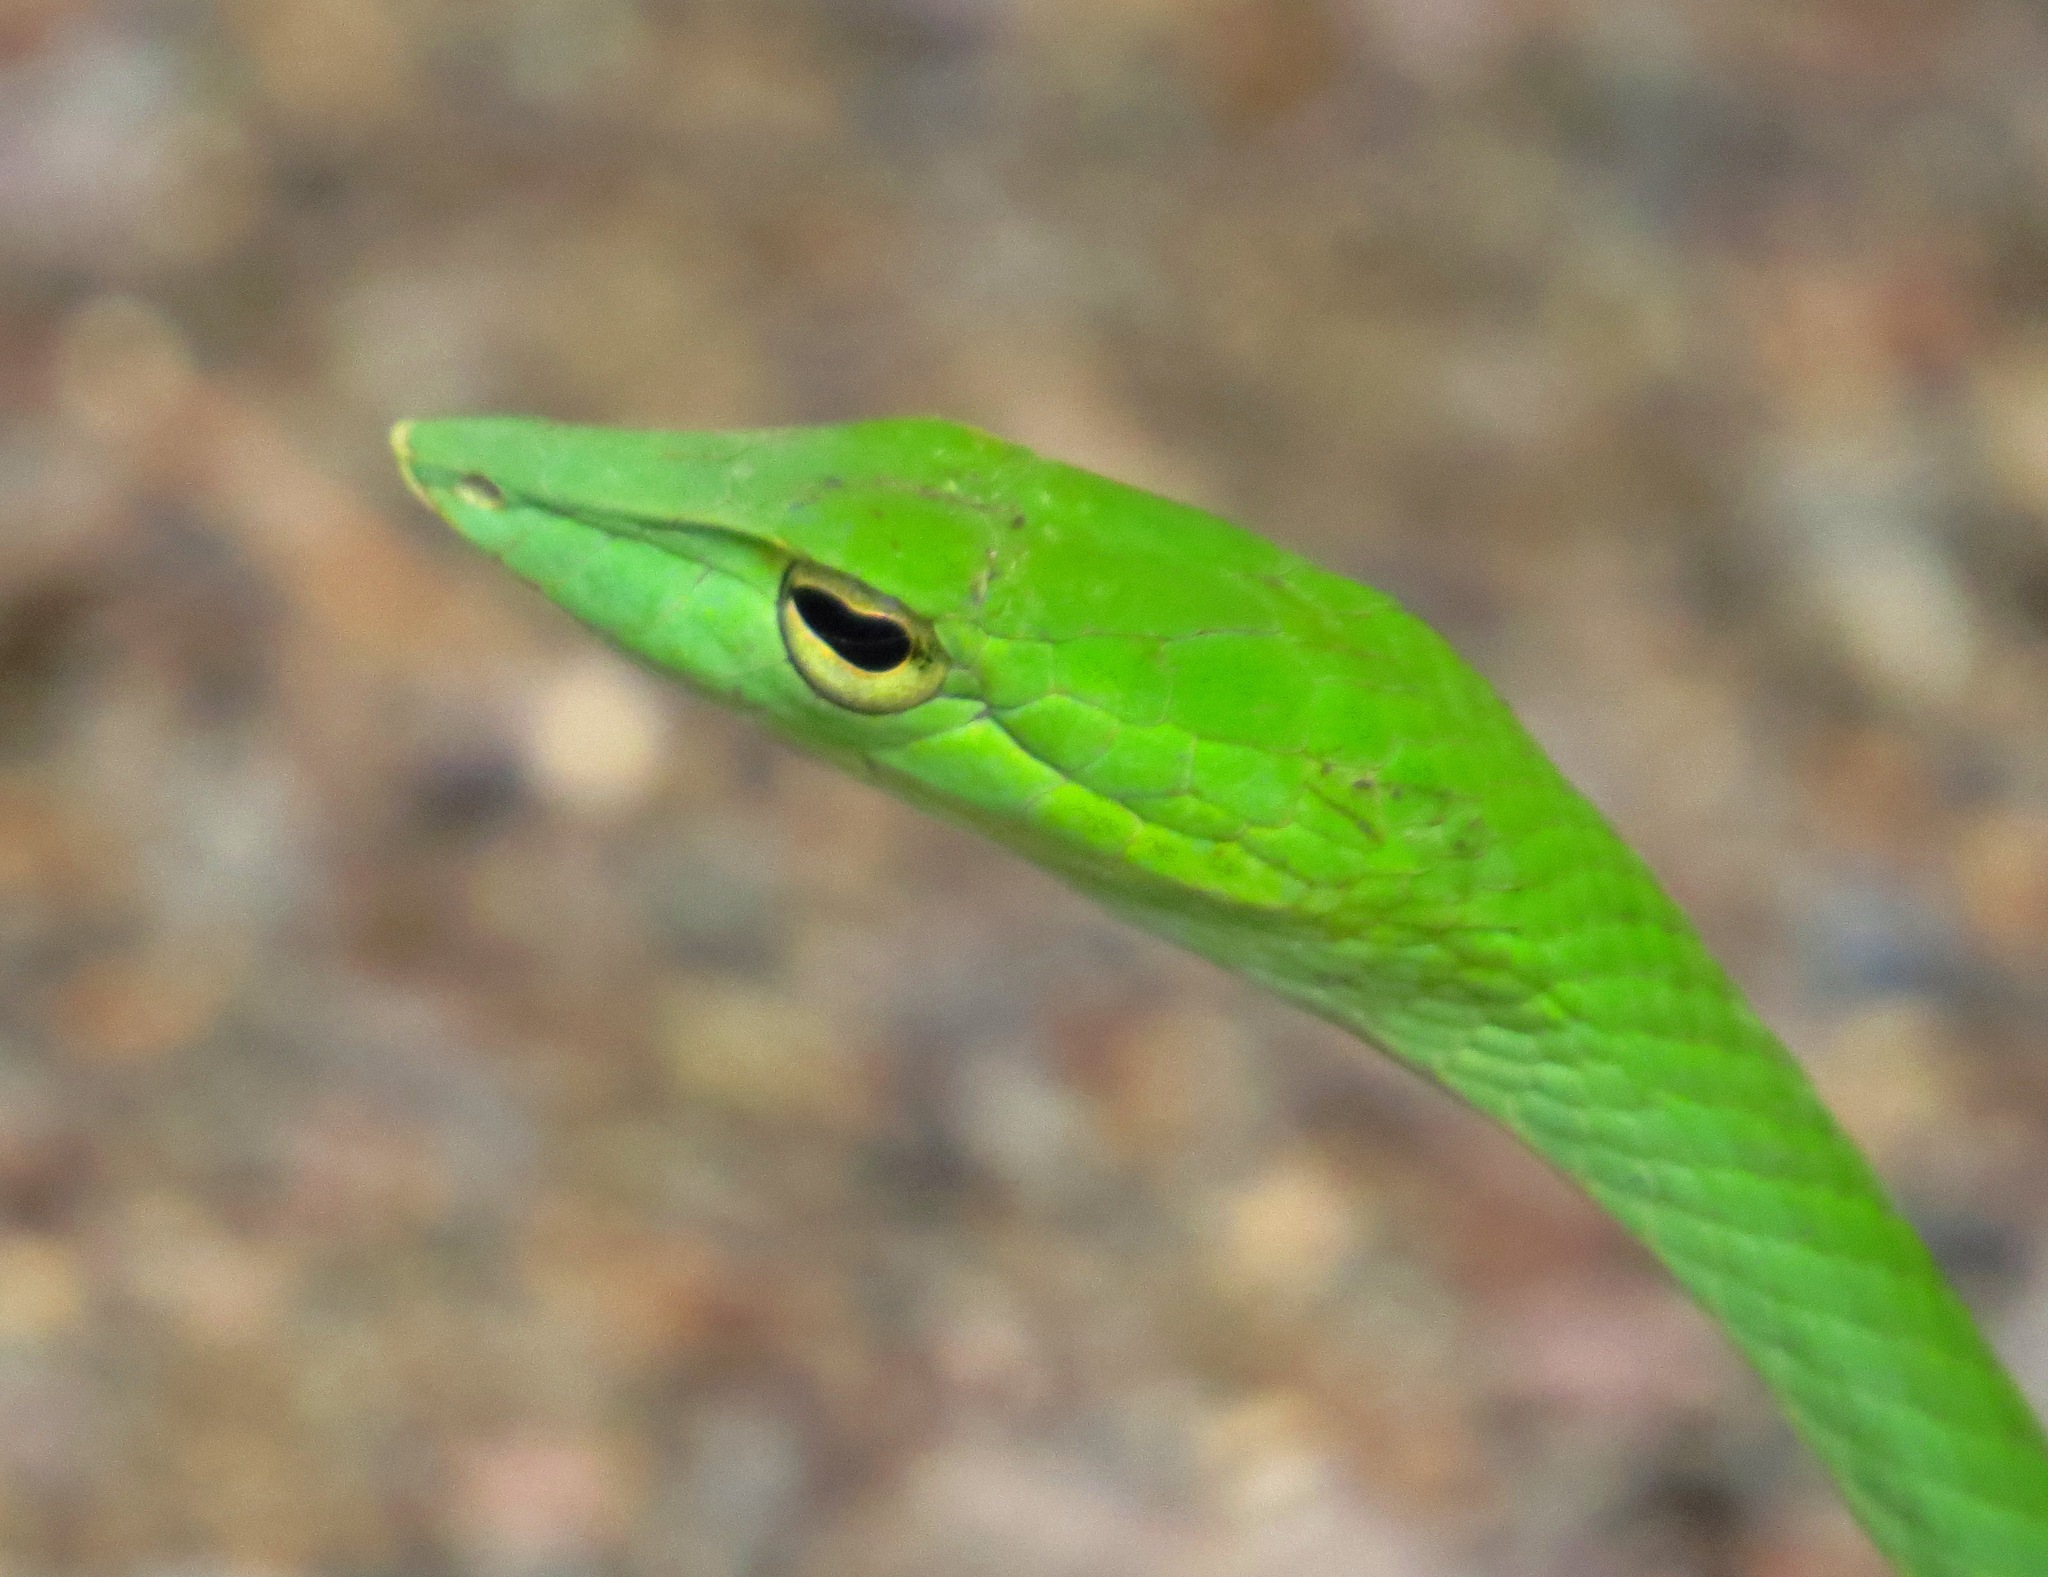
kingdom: Animalia
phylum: Chordata
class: Squamata
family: Colubridae
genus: Ahaetulla
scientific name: Ahaetulla prasina
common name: Oriental whip snake
